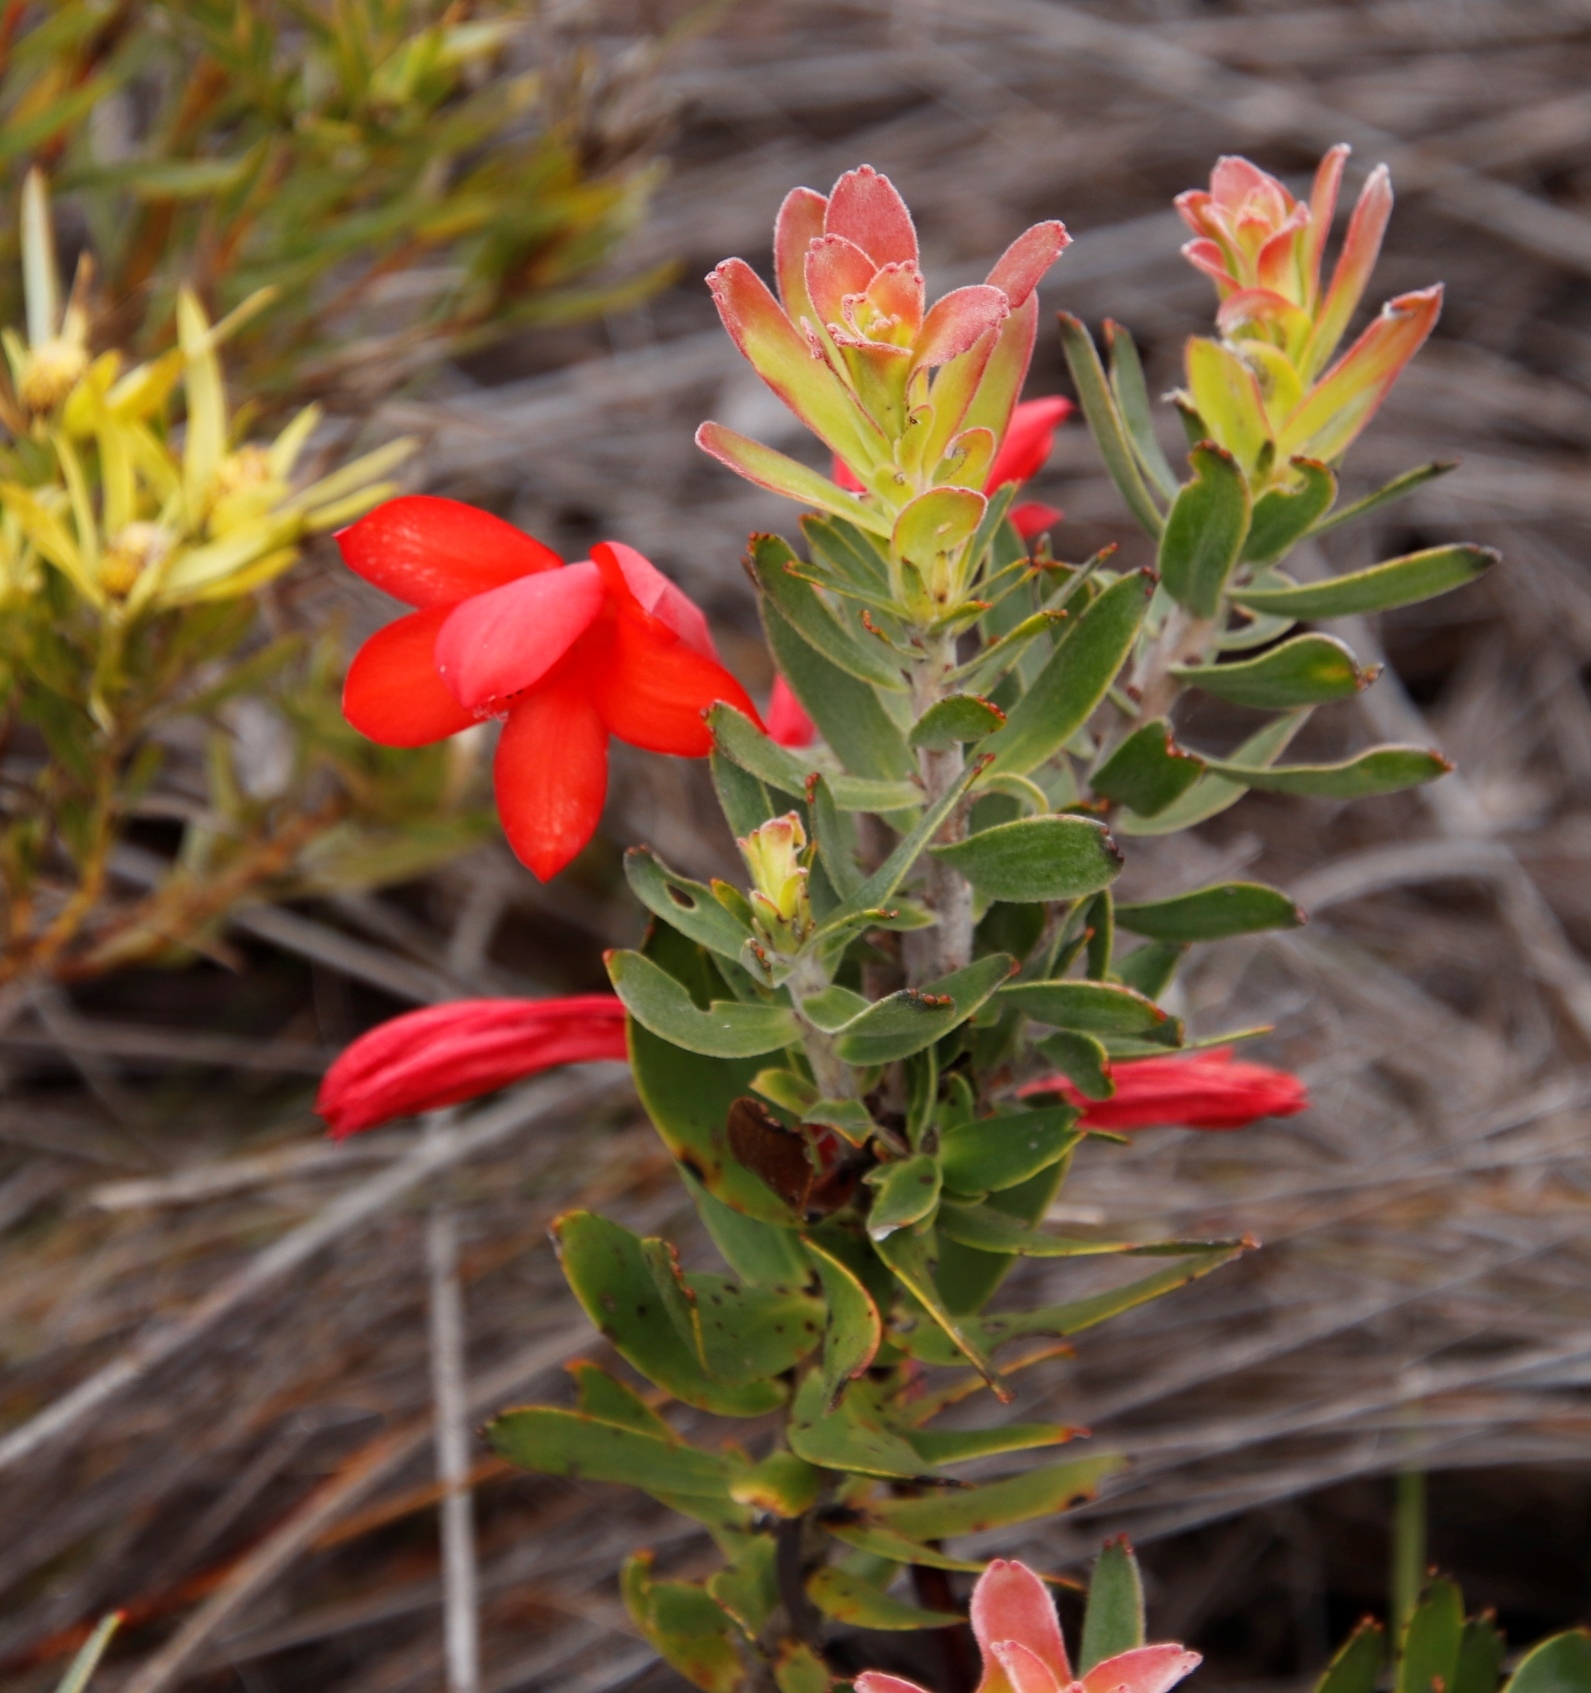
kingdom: Plantae
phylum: Tracheophyta
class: Magnoliopsida
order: Proteales
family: Proteaceae
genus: Mimetes
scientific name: Mimetes cucullatus
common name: Common pagoda
